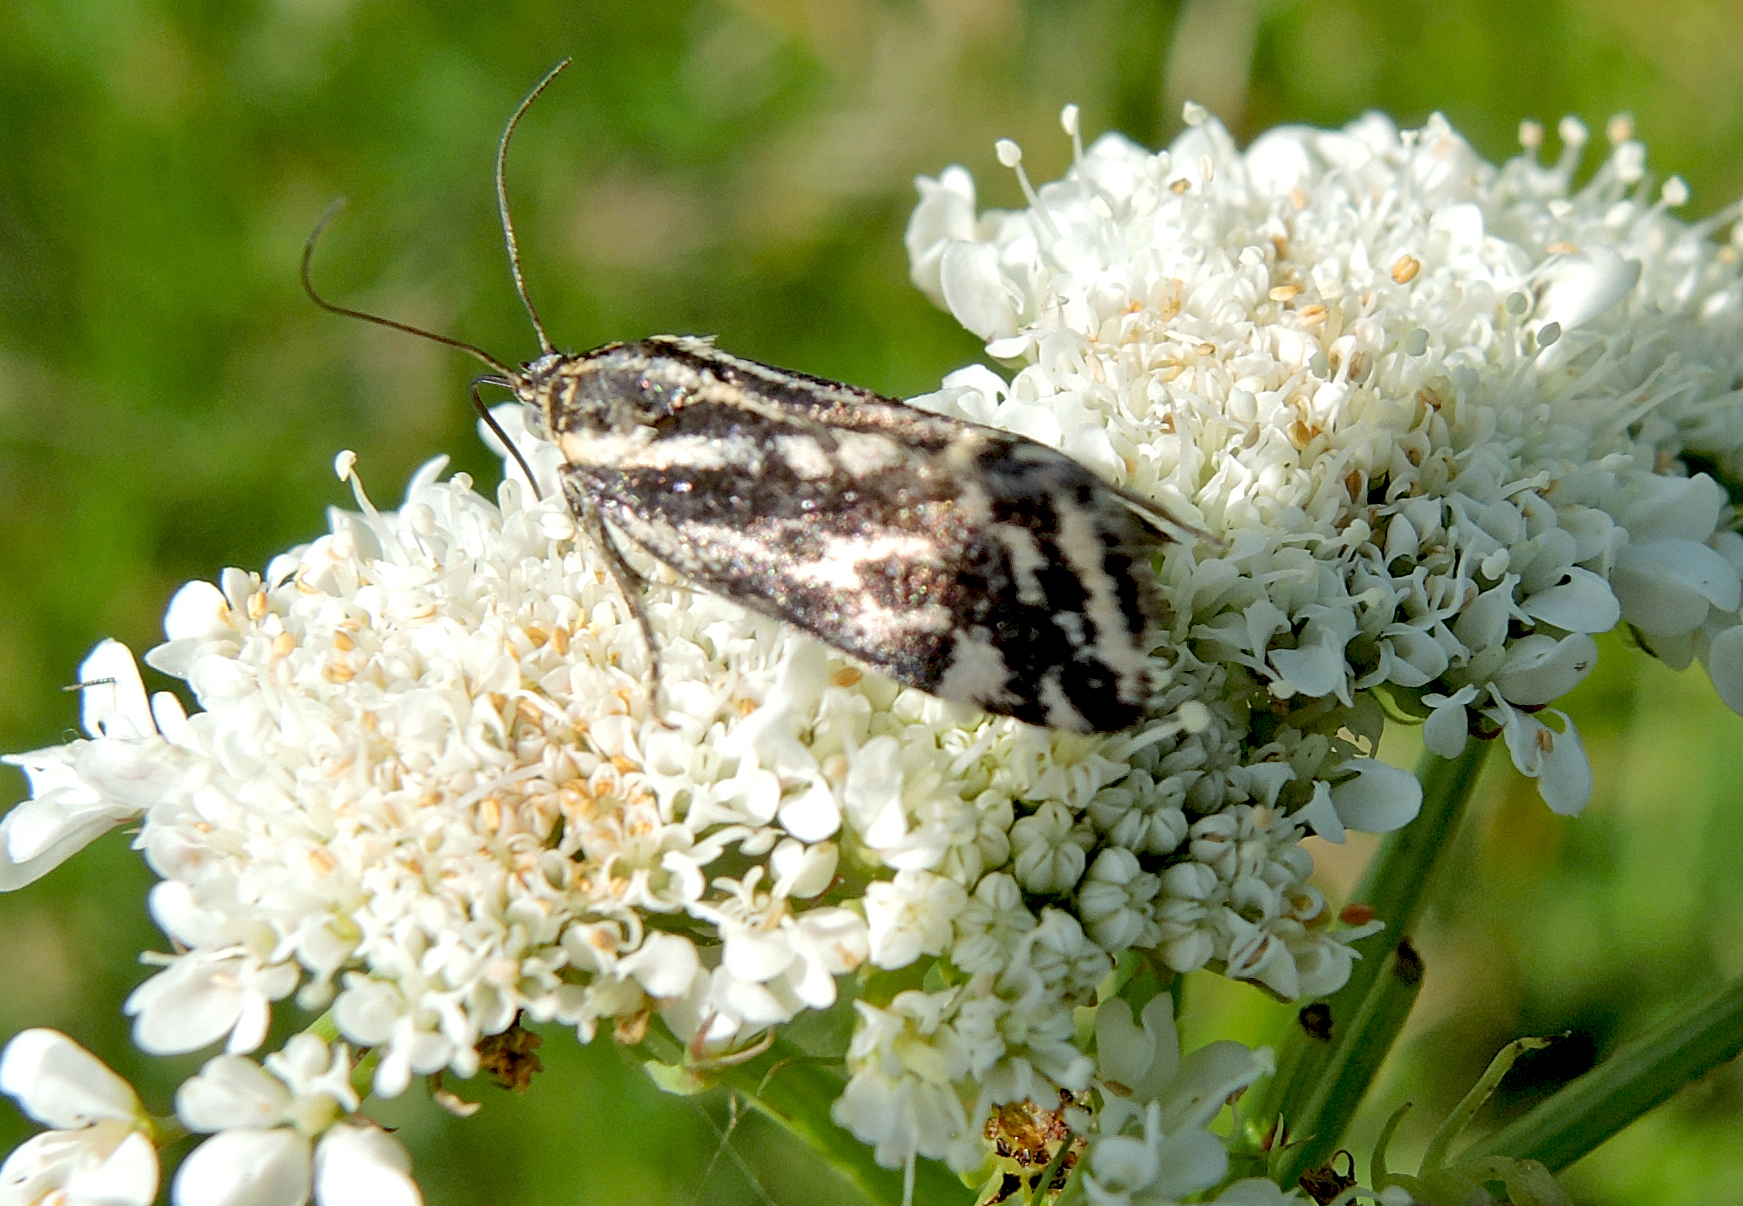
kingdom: Animalia
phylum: Arthropoda
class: Insecta
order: Lepidoptera
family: Noctuidae
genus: Acontia
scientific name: Acontia trabealis
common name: Spotted sulphur
